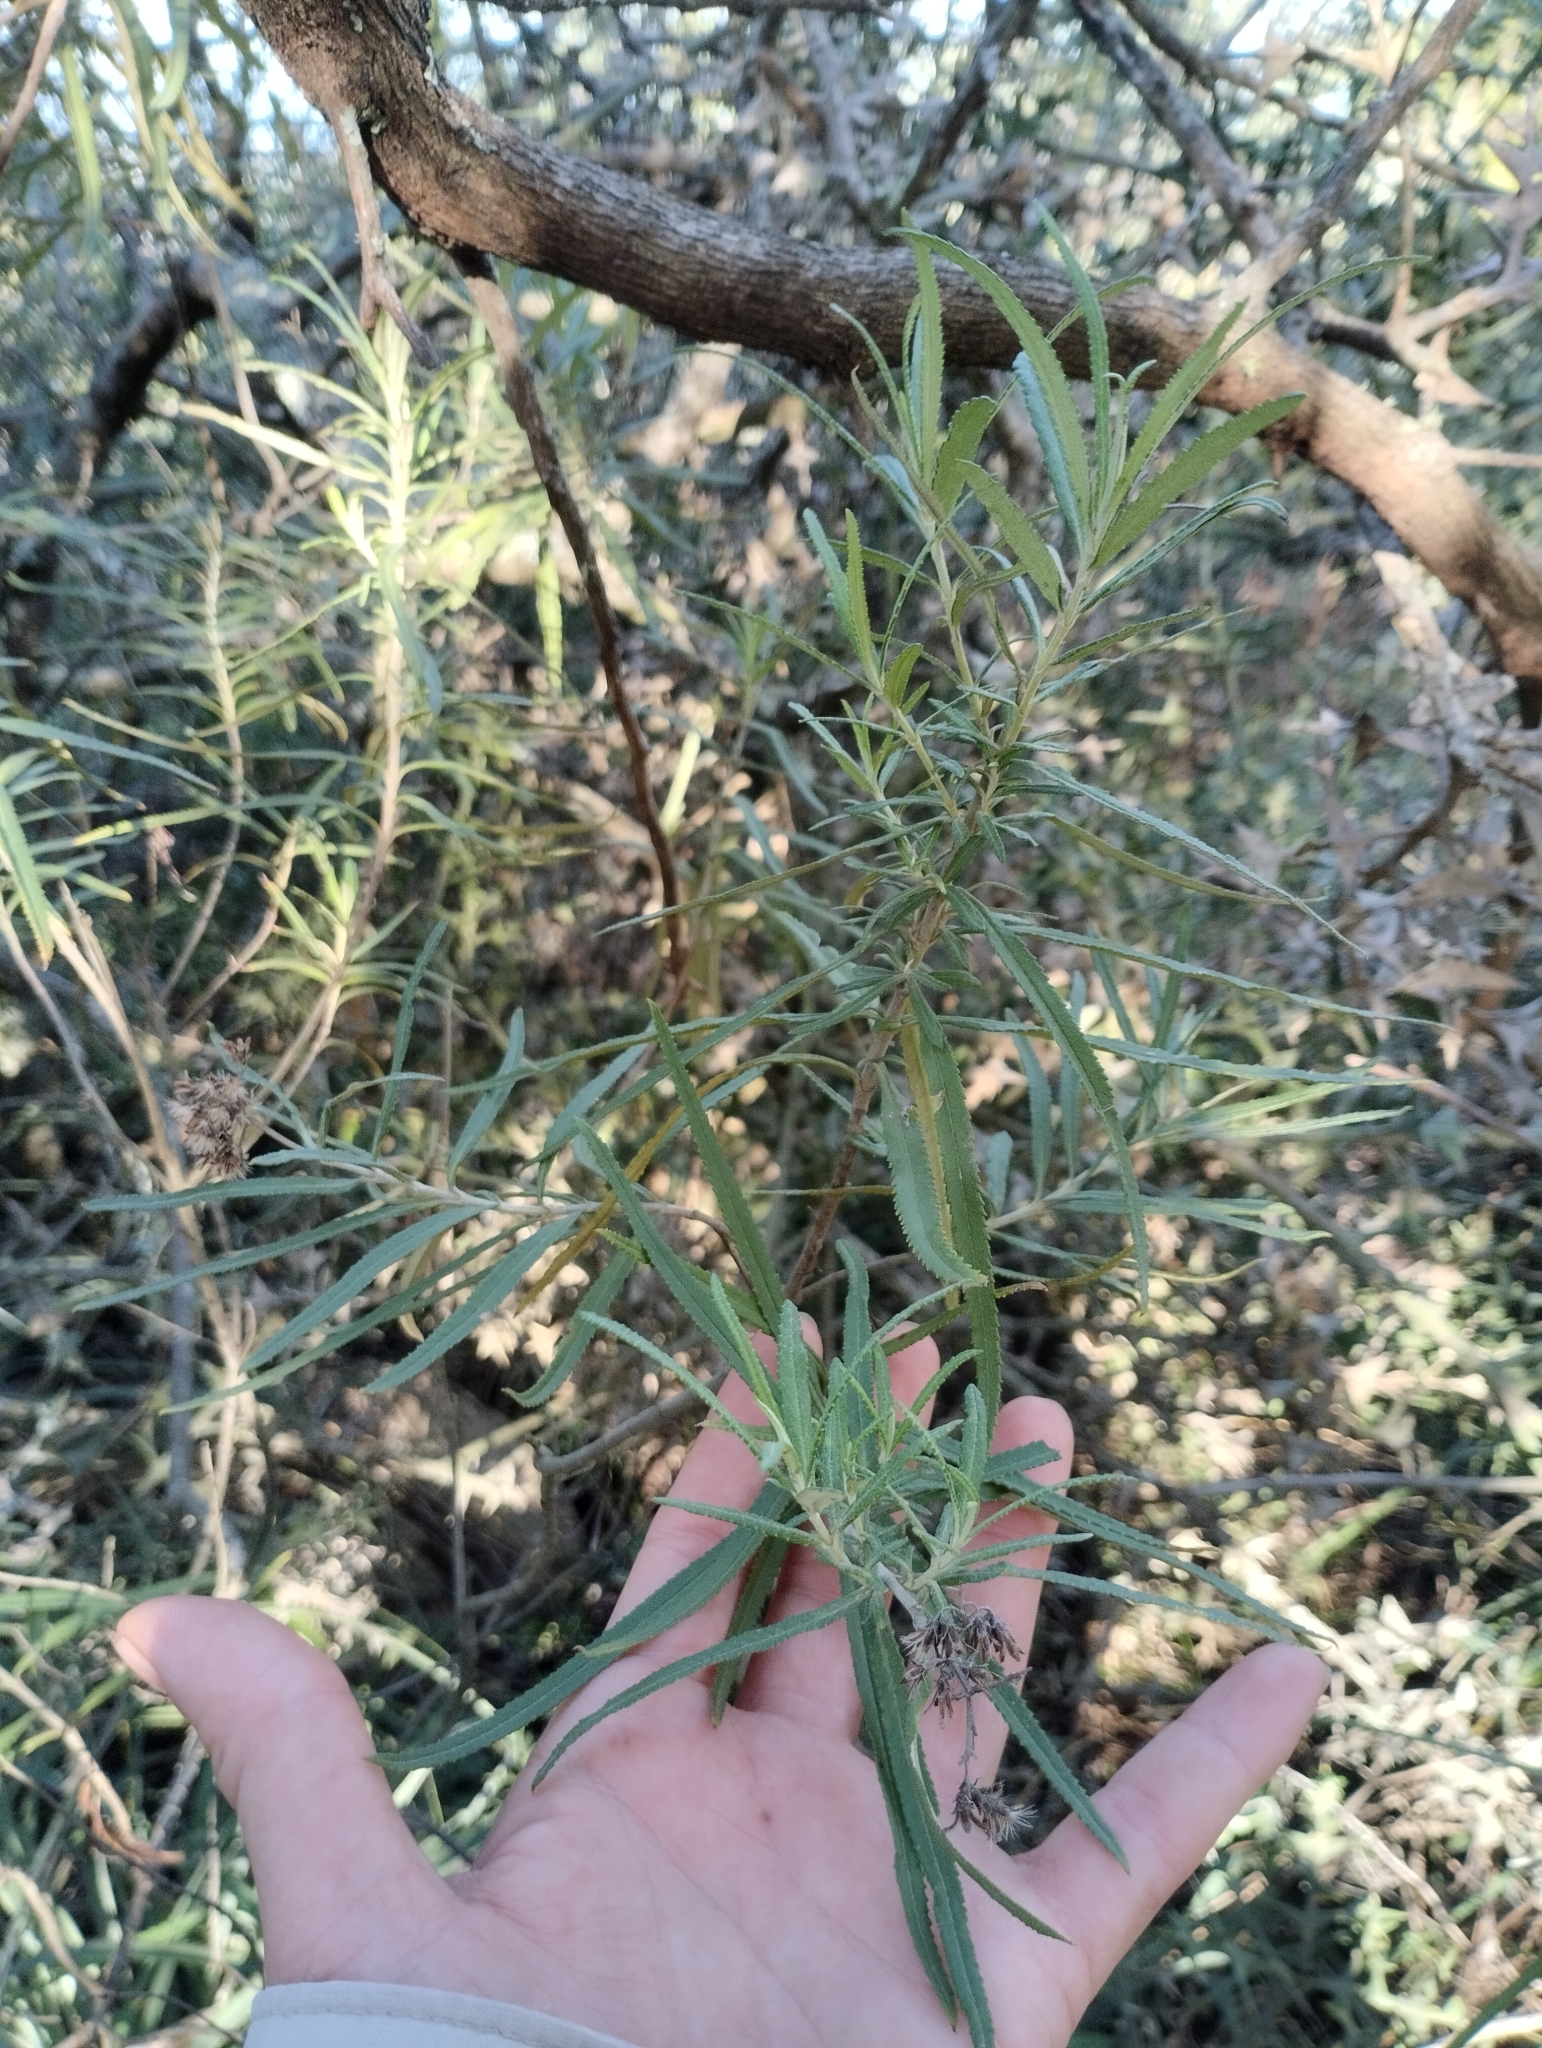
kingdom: Plantae
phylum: Tracheophyta
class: Magnoliopsida
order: Asterales
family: Asteraceae
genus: Grazielia
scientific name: Grazielia serrata
